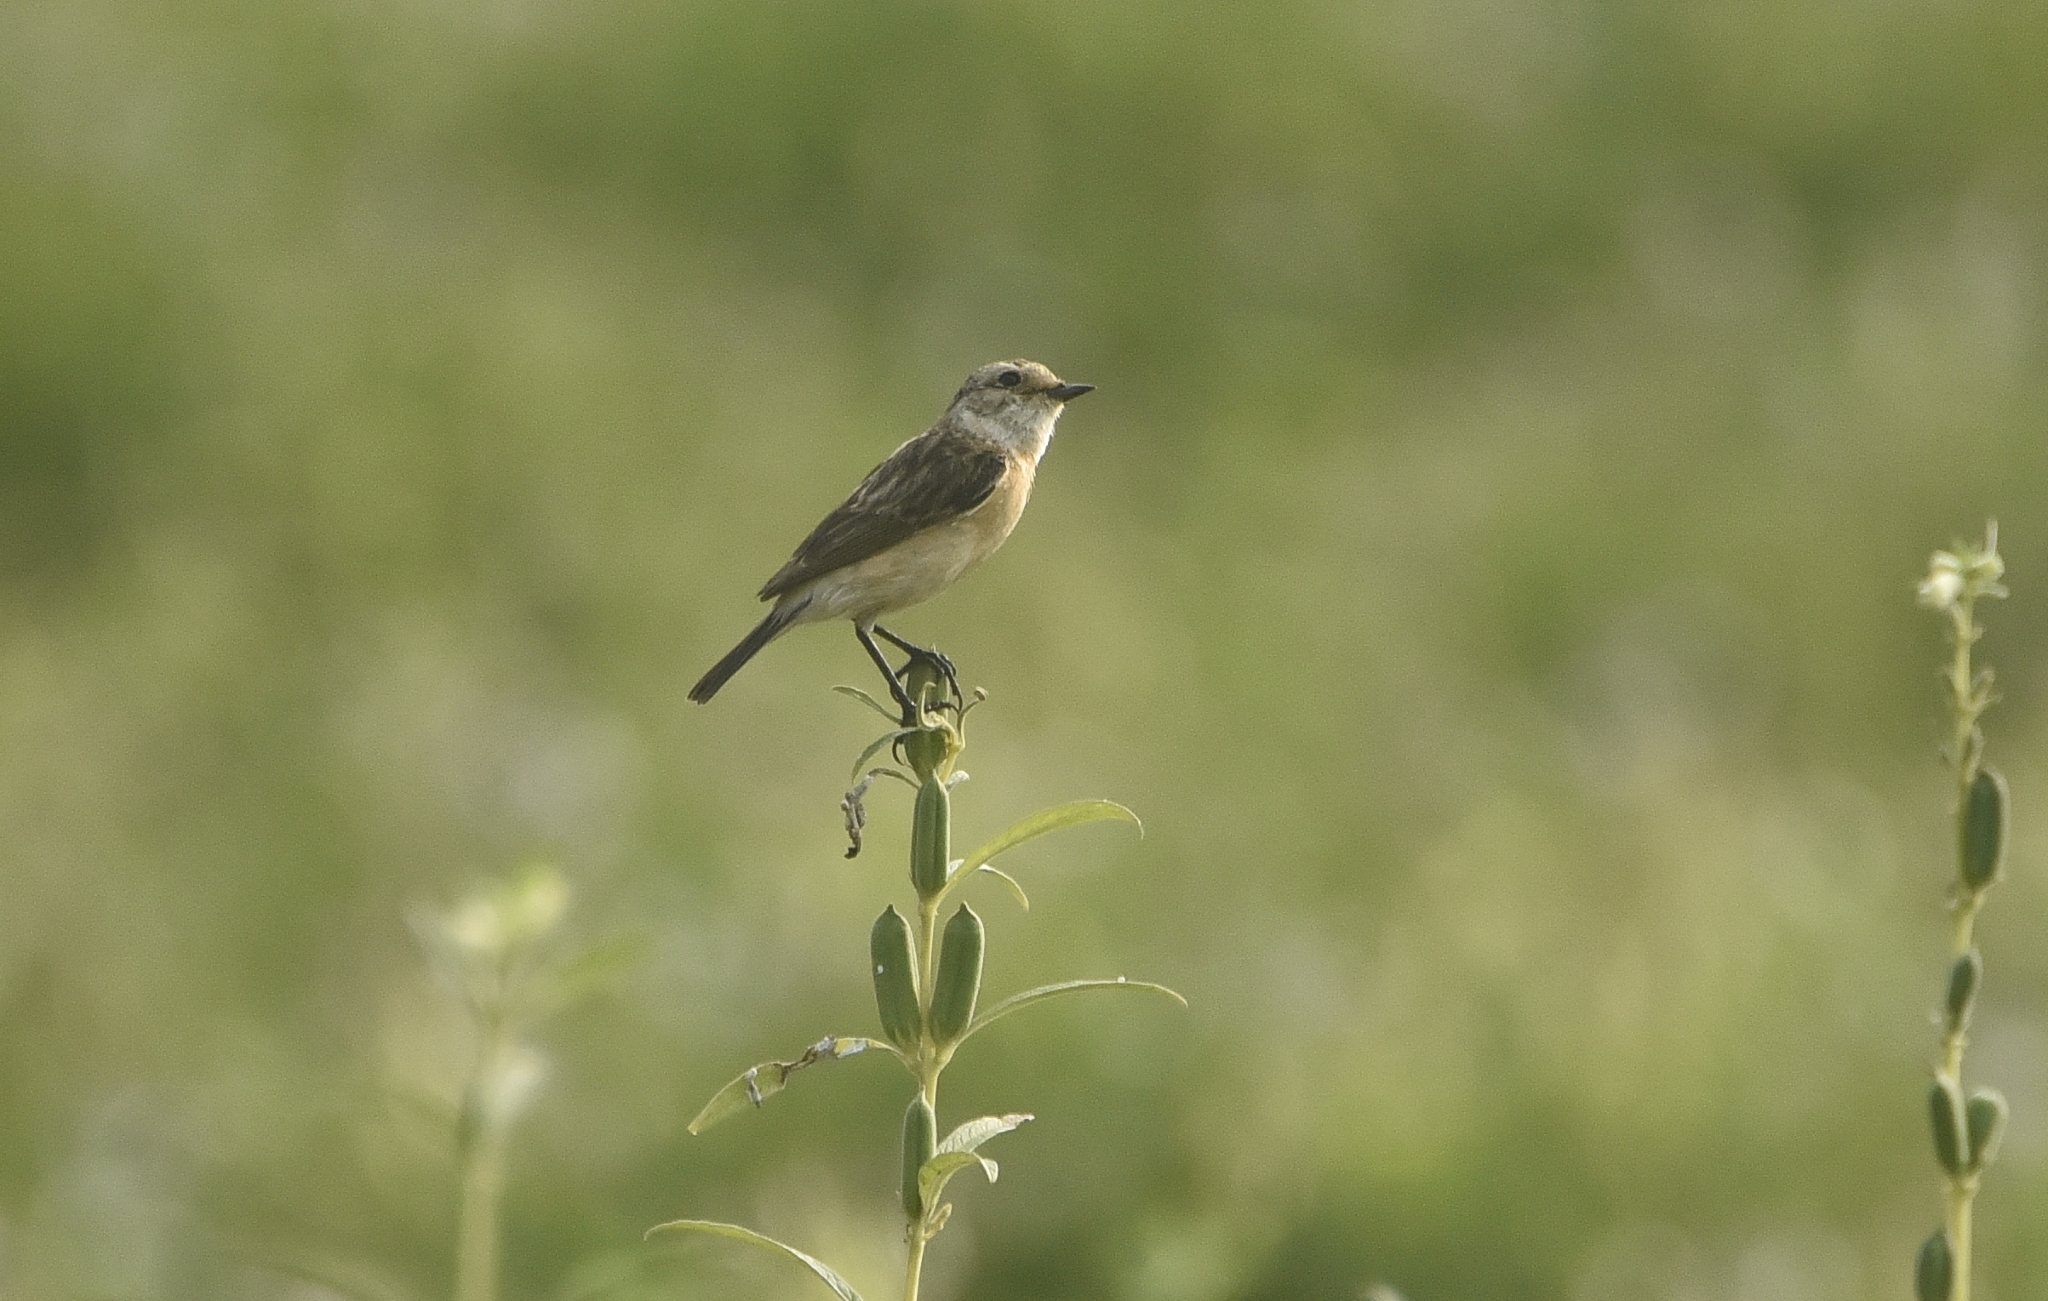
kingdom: Animalia
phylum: Chordata
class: Aves
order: Passeriformes
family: Muscicapidae
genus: Saxicola
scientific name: Saxicola maurus
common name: Siberian stonechat
